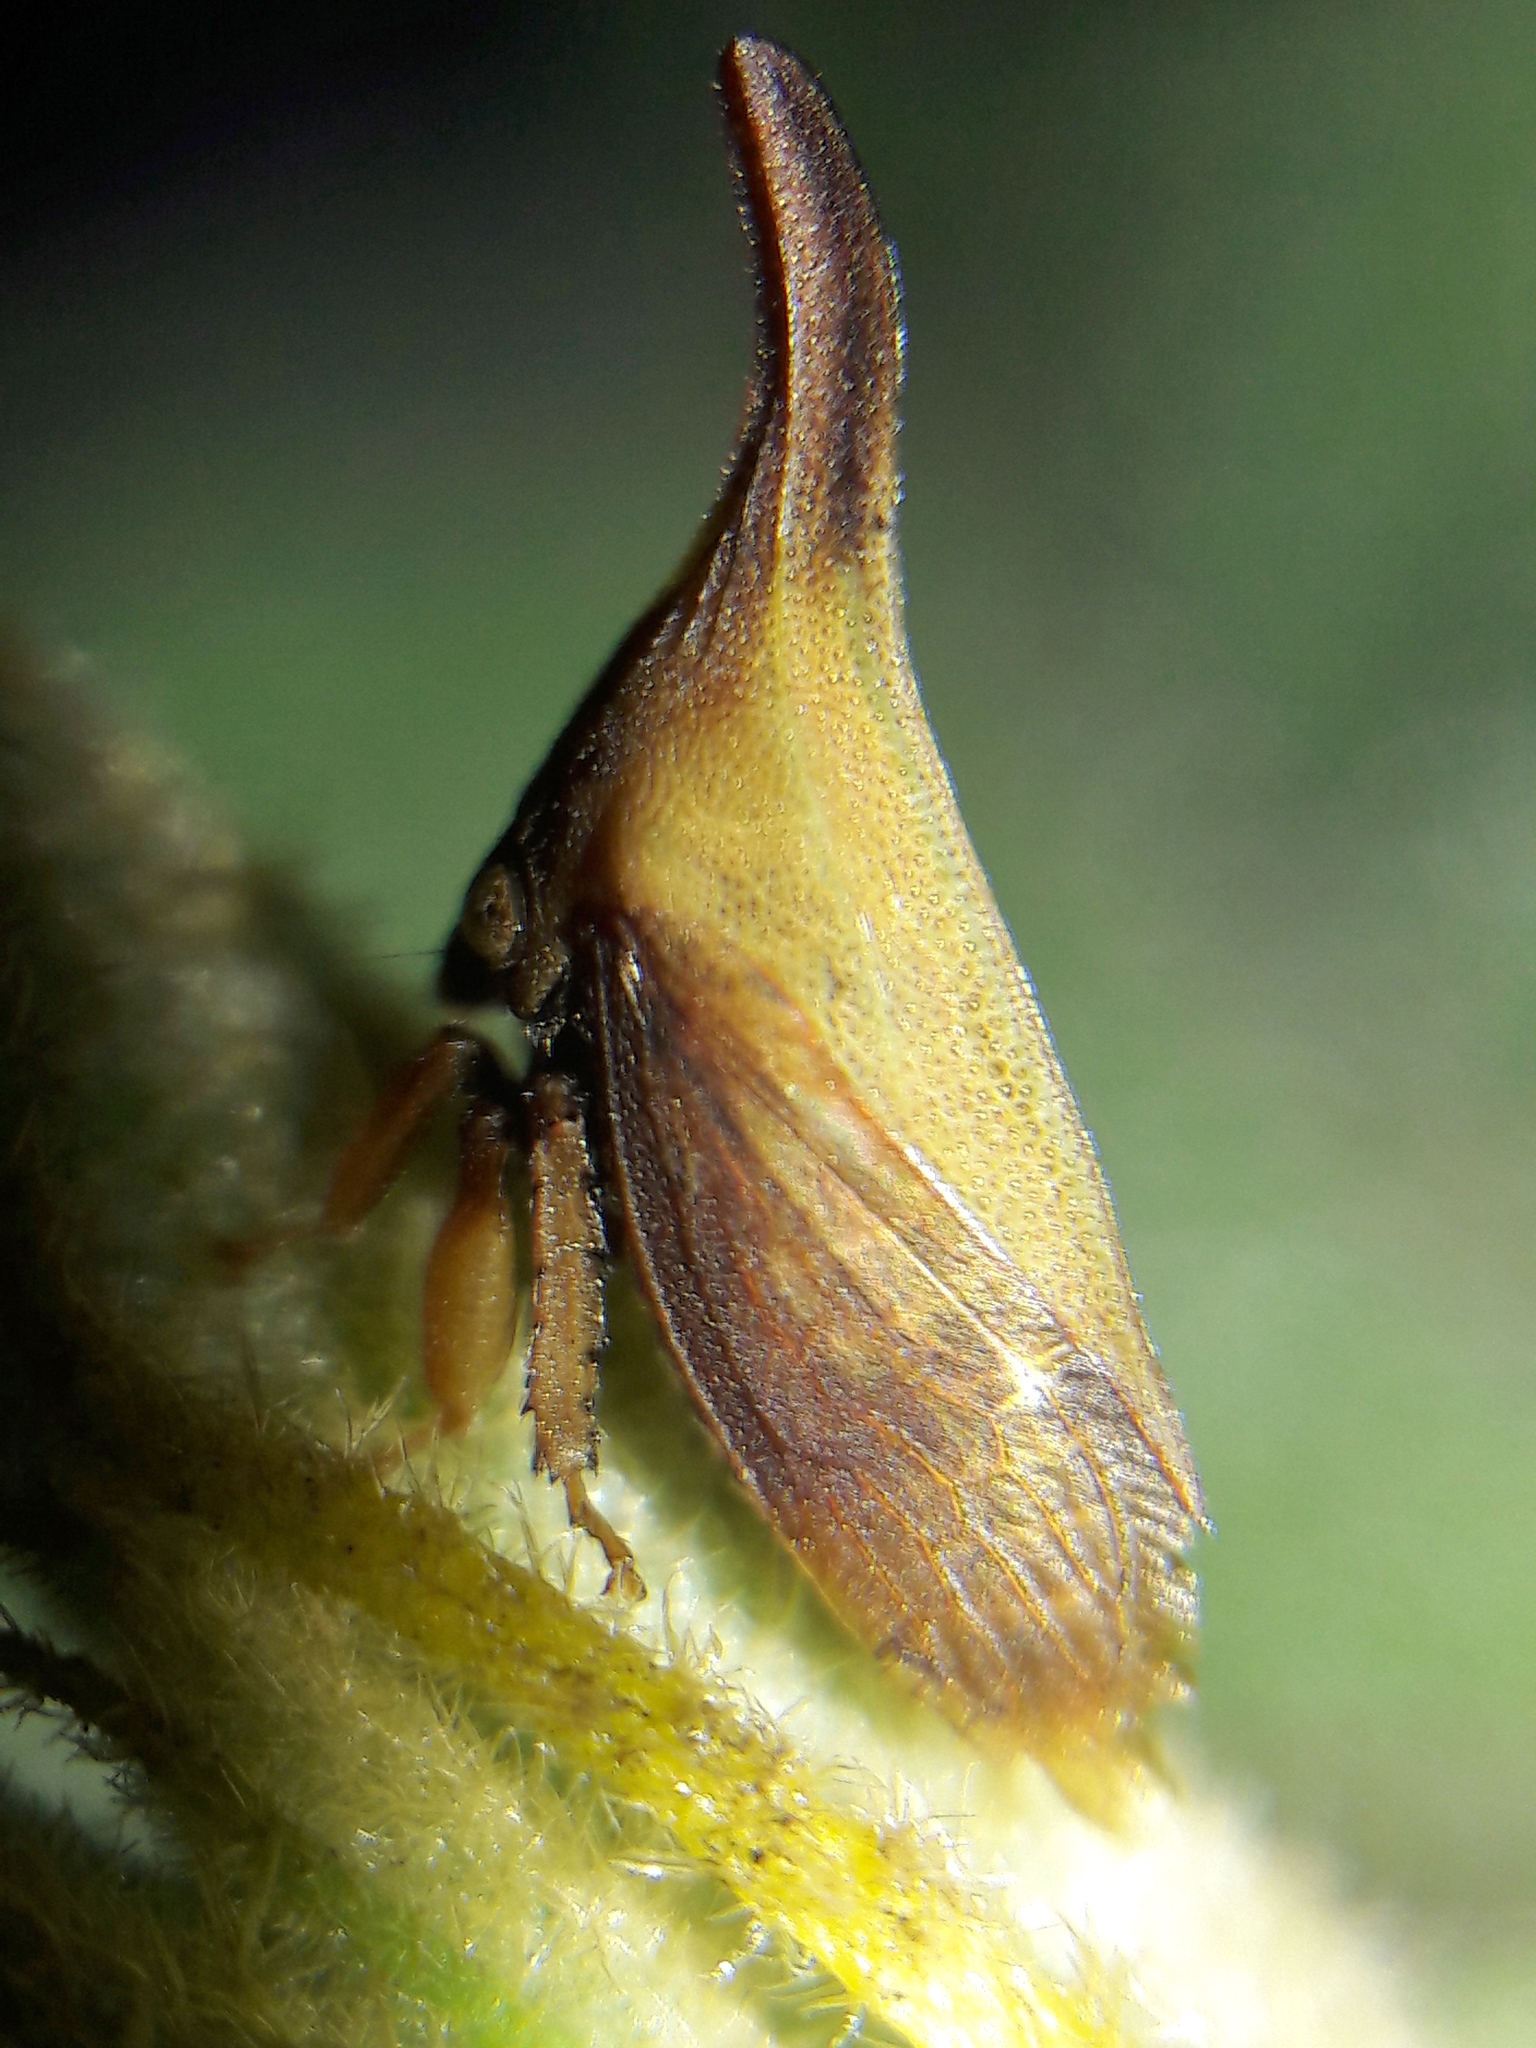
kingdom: Animalia
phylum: Arthropoda
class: Insecta
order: Hemiptera
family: Membracidae
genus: Enchenopa
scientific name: Enchenopa gracilis
